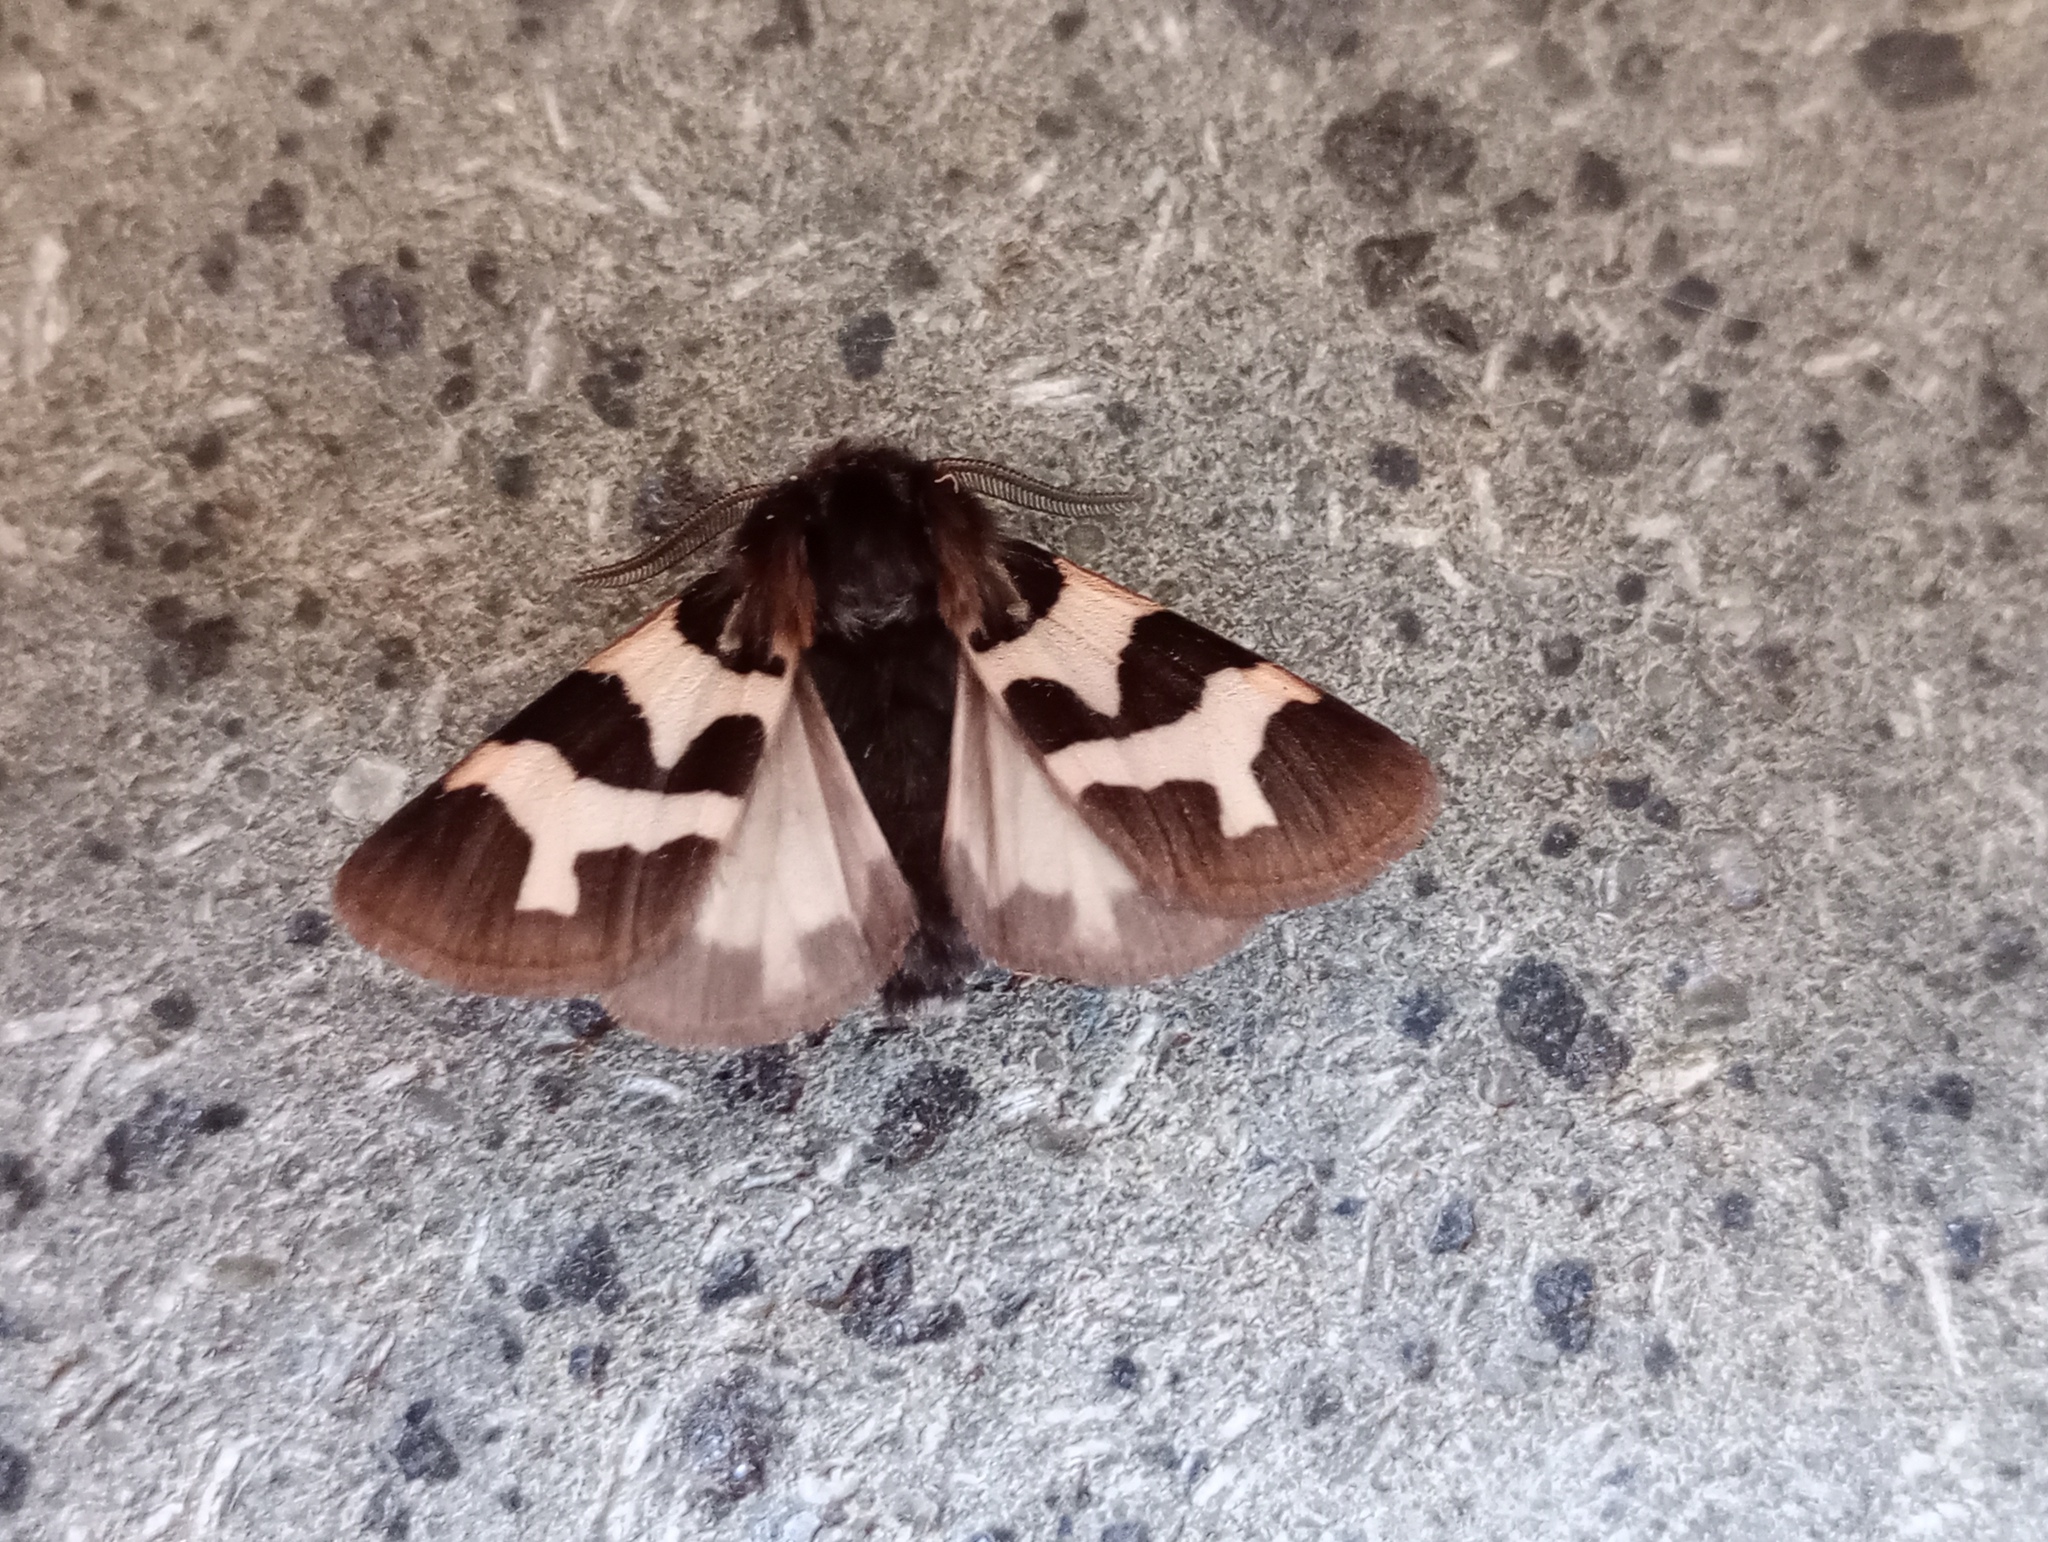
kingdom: Animalia
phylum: Arthropoda
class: Insecta
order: Lepidoptera
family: Erebidae
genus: Watsonarctia
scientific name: Watsonarctia deserta
